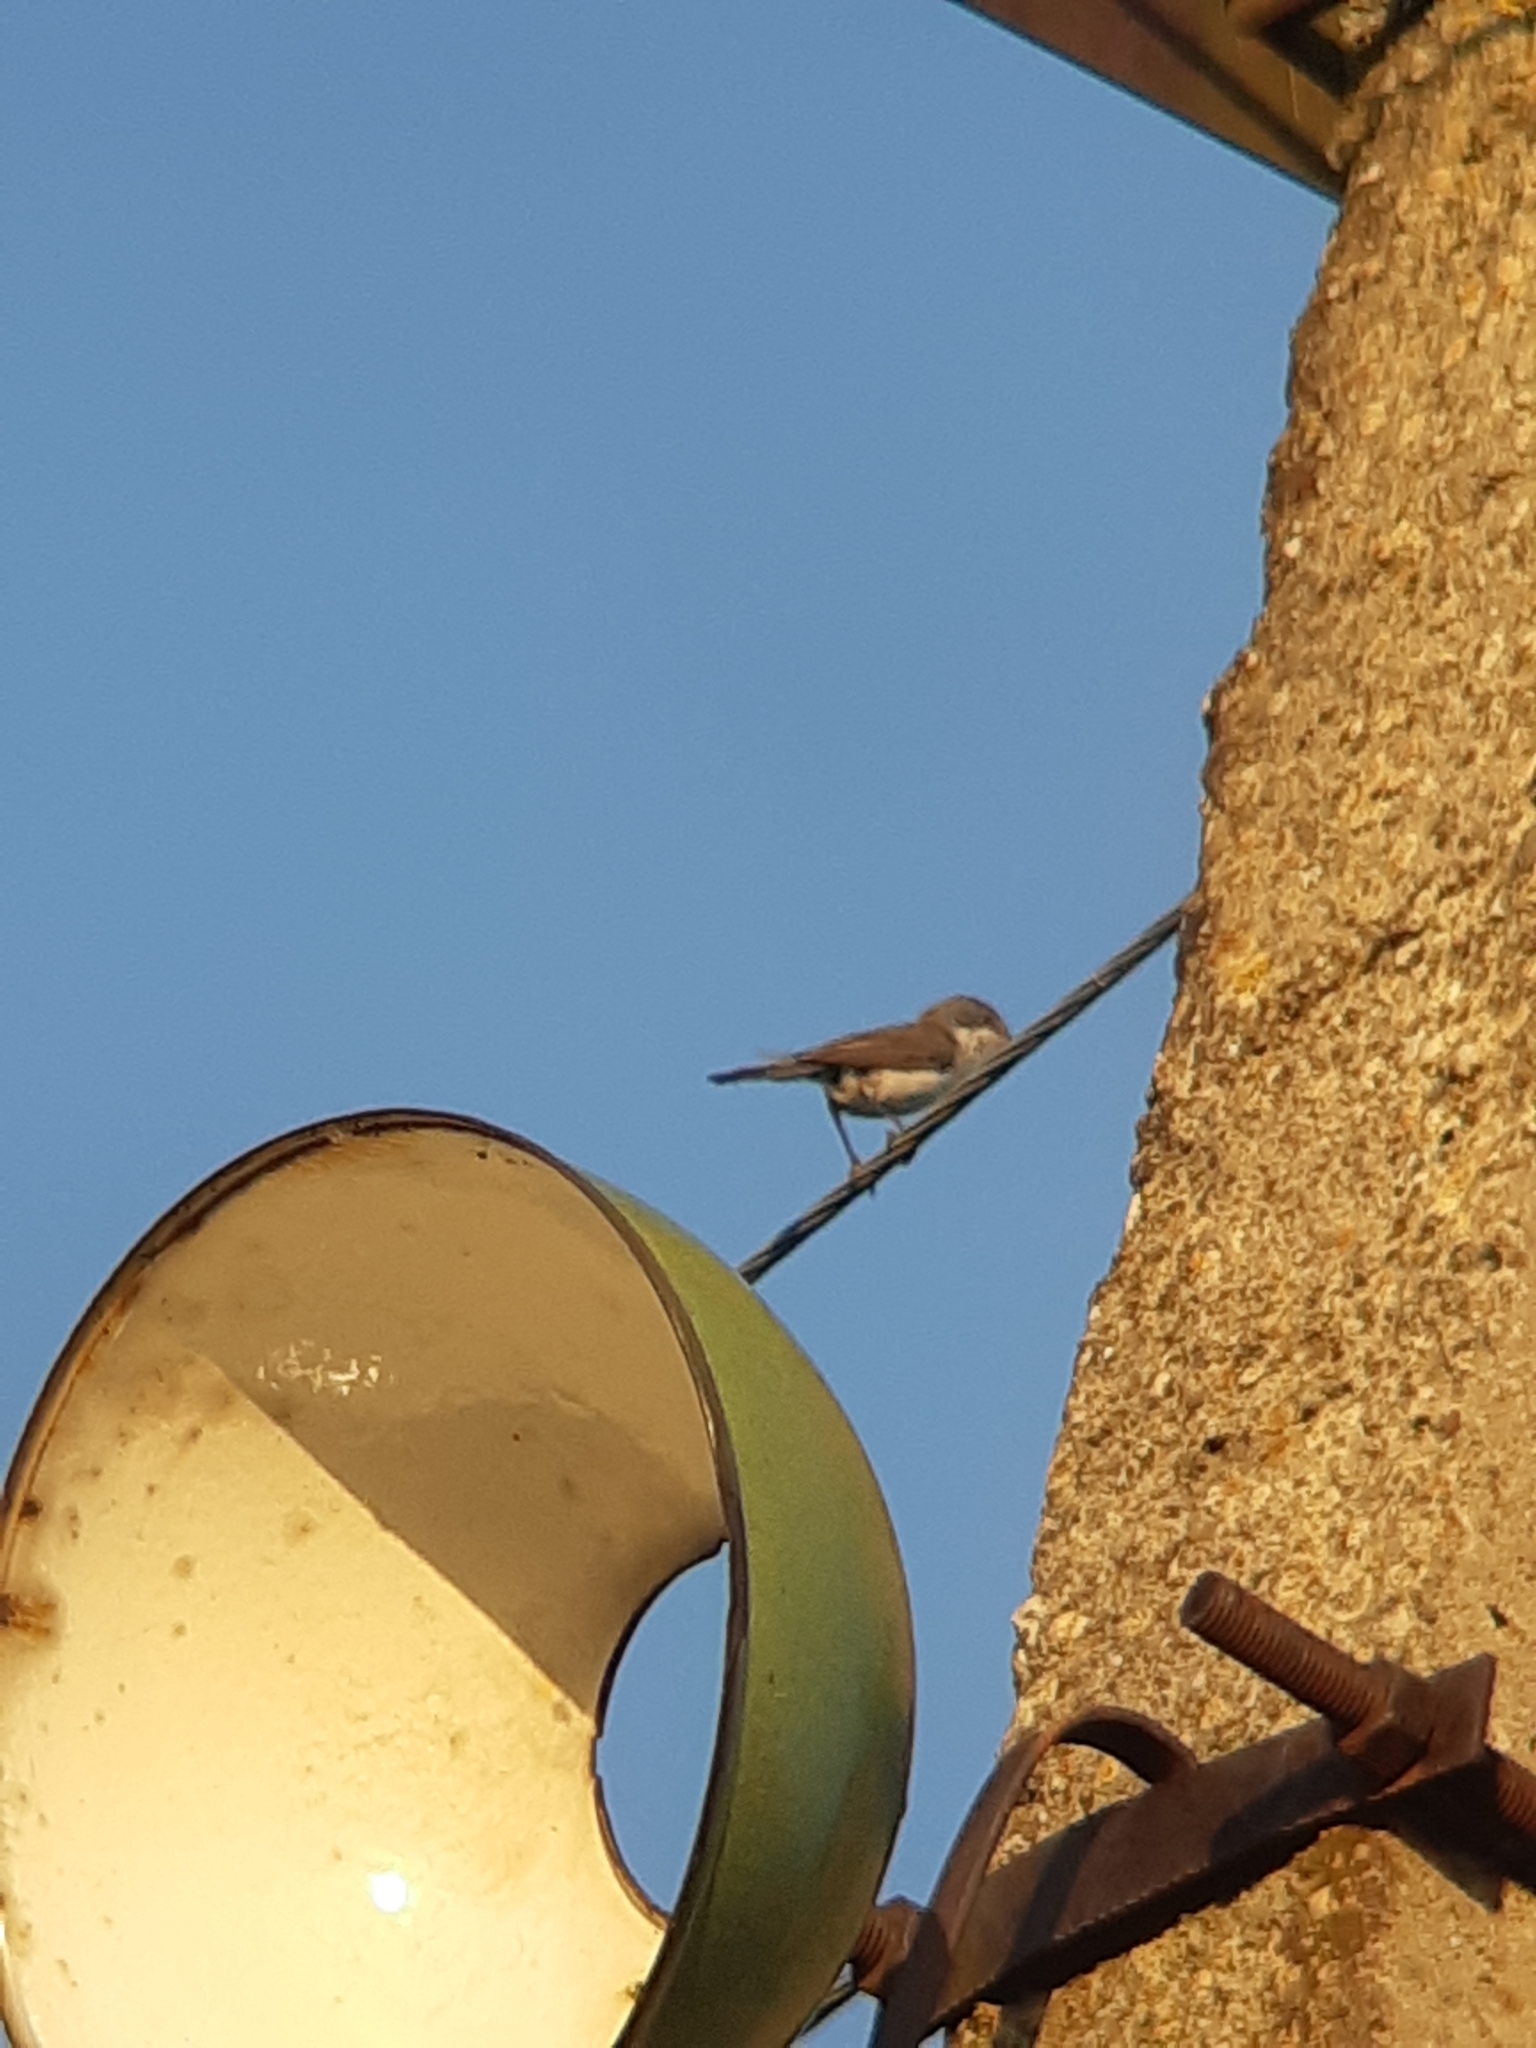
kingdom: Animalia
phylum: Chordata
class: Aves
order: Passeriformes
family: Sylviidae
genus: Sylvia
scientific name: Sylvia curruca
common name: Lesser whitethroat
